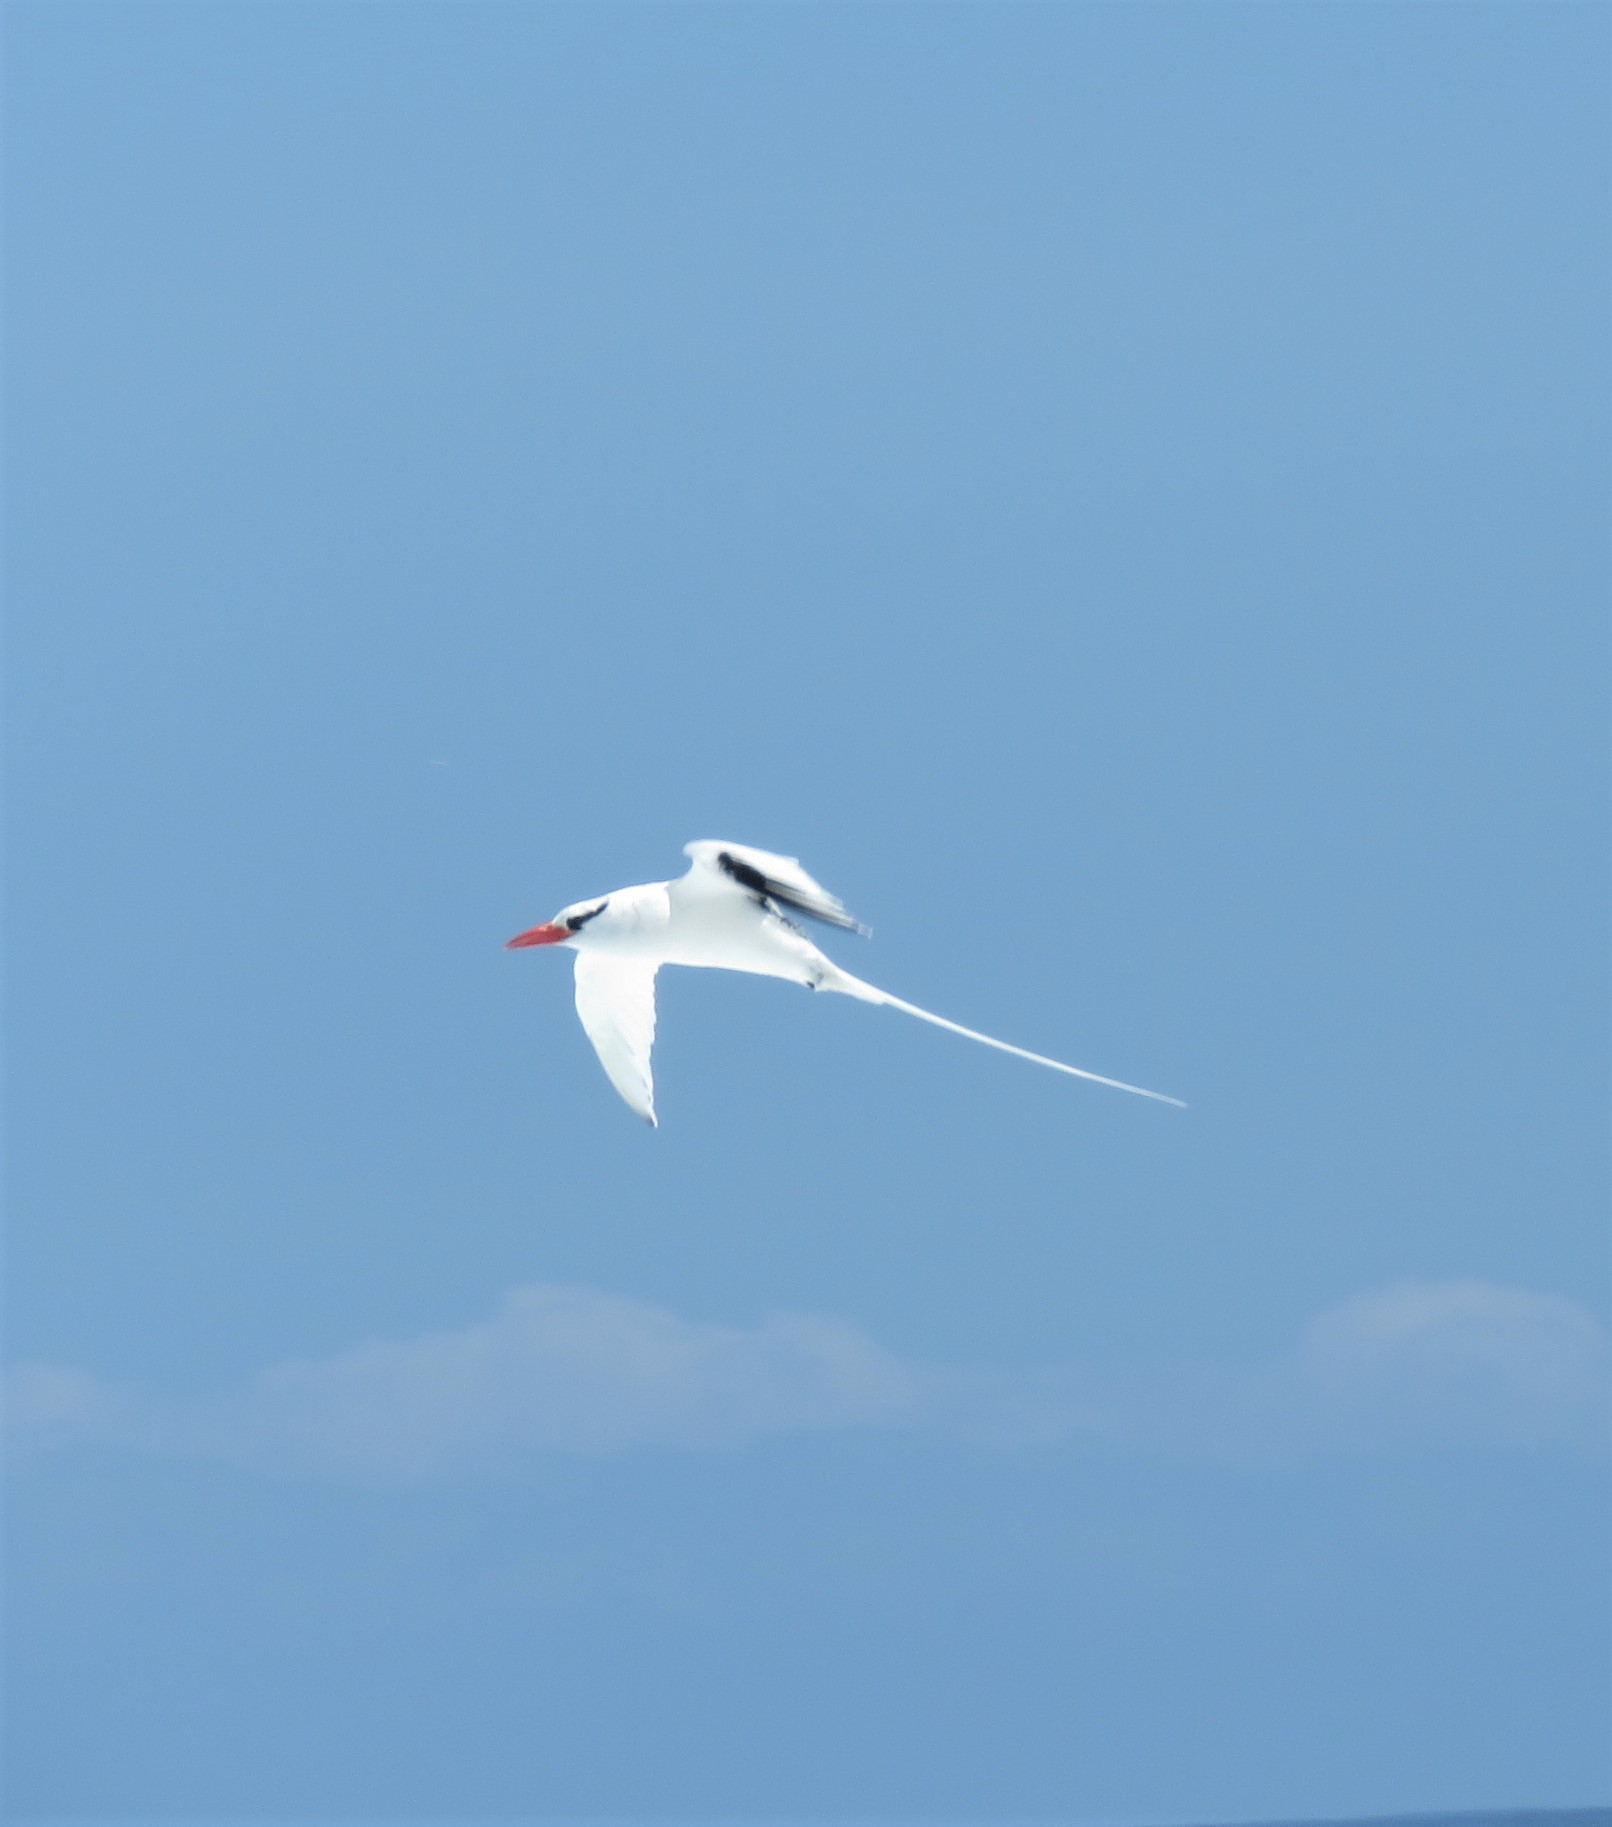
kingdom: Animalia
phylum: Chordata
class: Aves
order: Phaethontiformes
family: Phaethontidae
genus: Phaethon
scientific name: Phaethon aethereus
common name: Red-billed tropicbird
